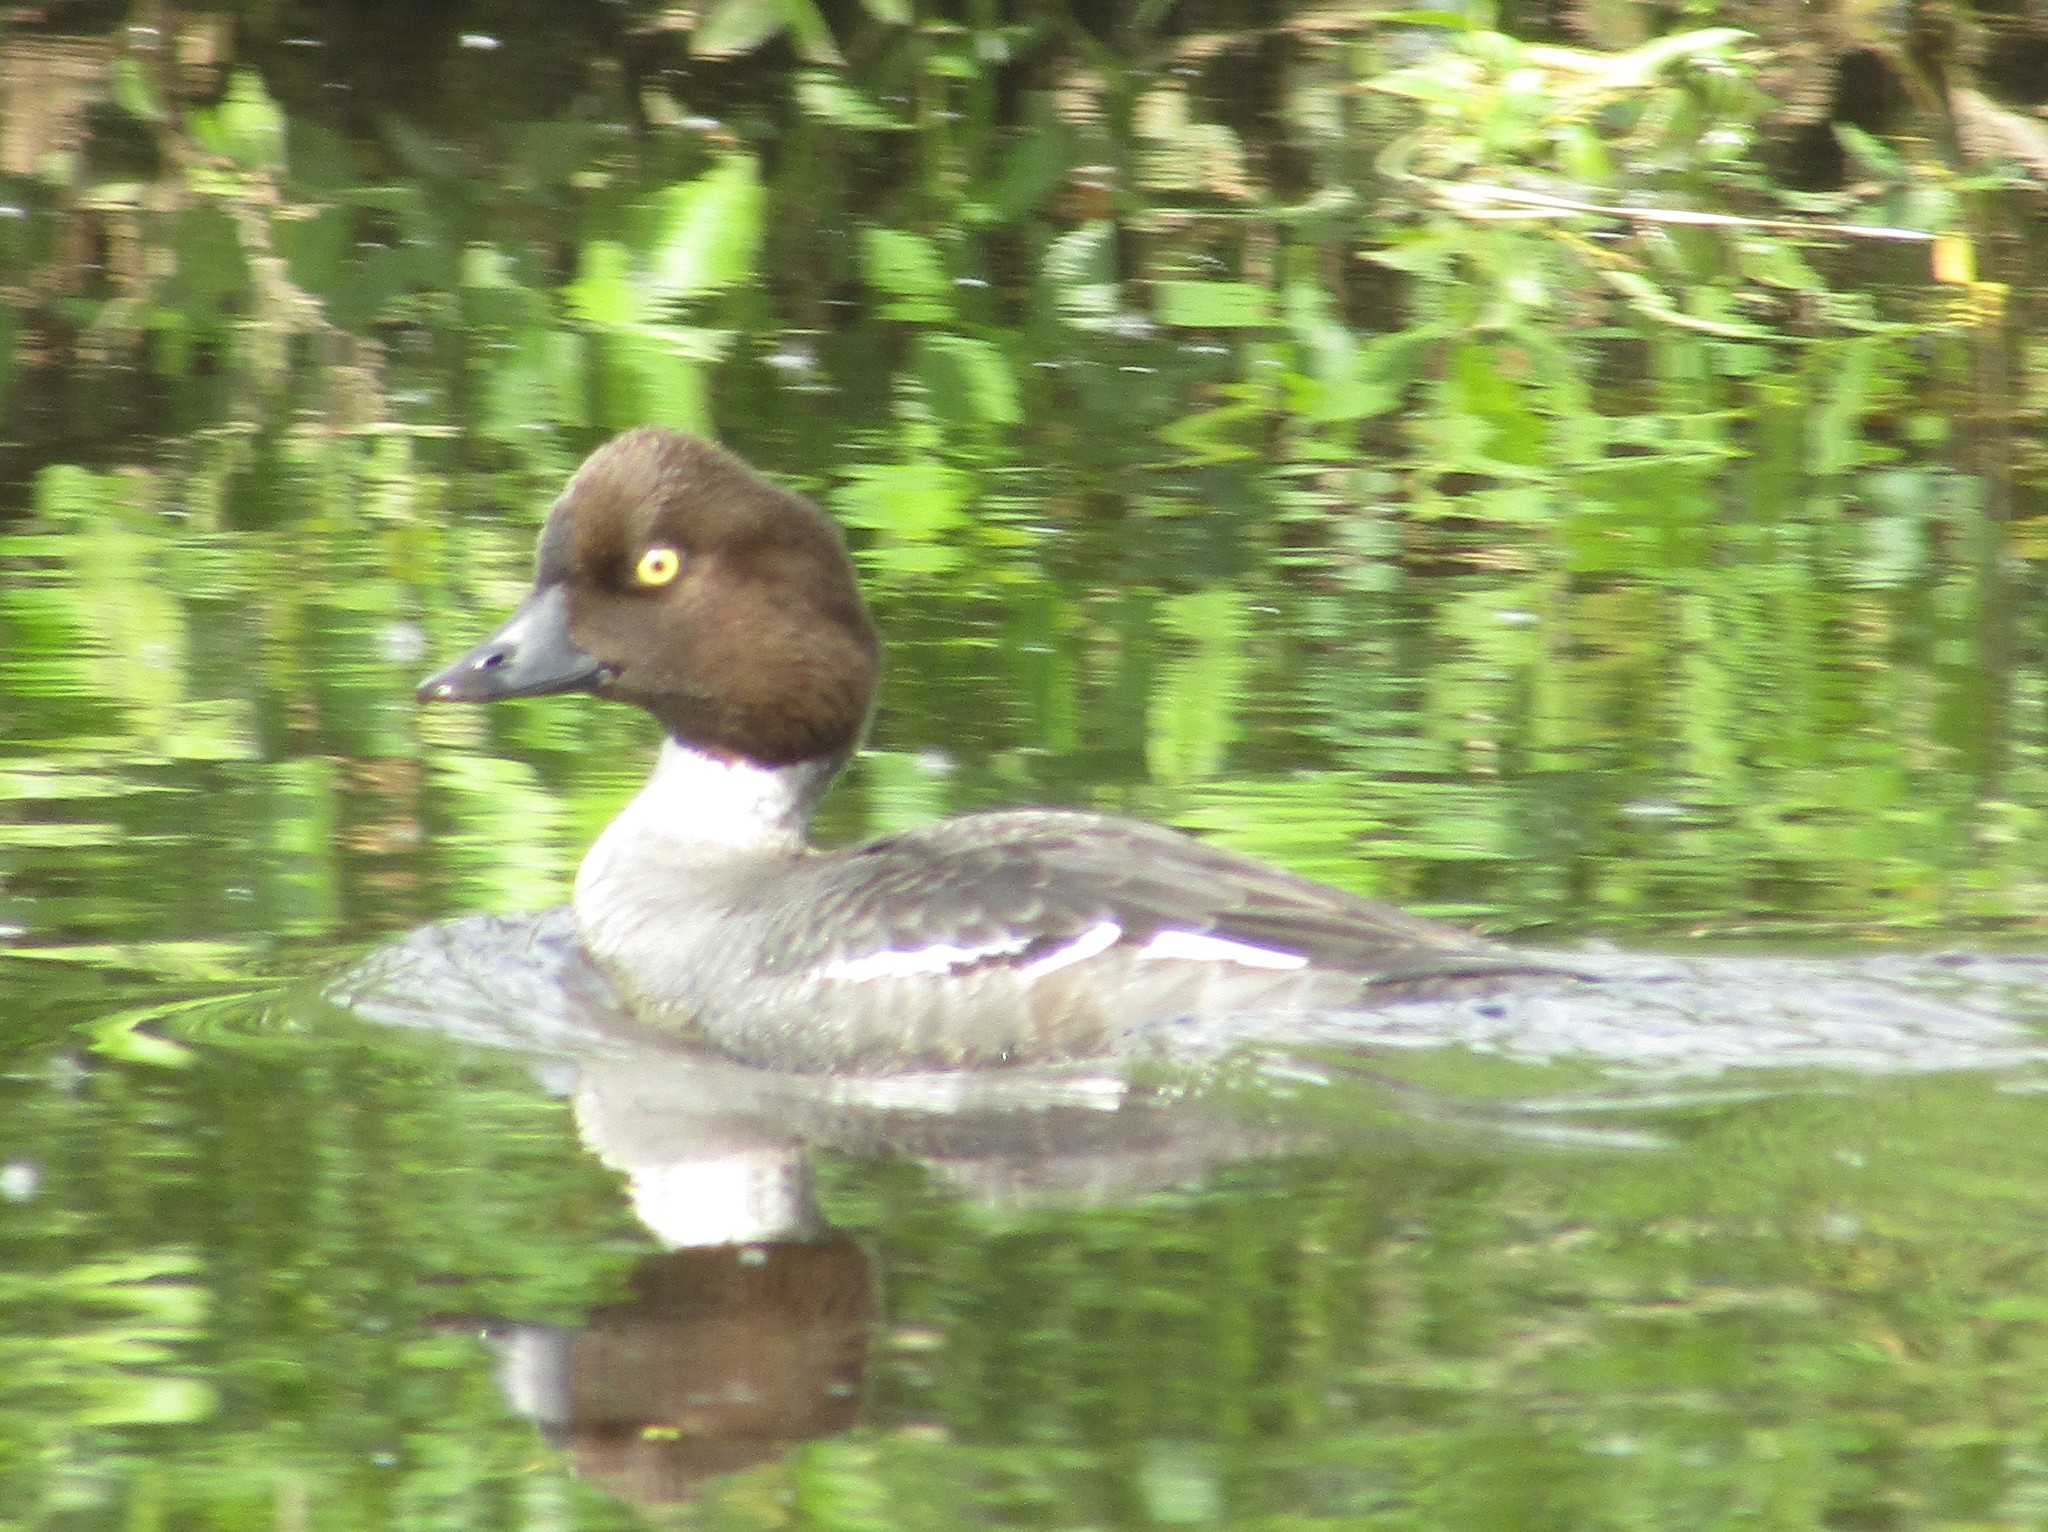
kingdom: Animalia
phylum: Chordata
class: Aves
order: Anseriformes
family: Anatidae
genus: Bucephala
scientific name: Bucephala clangula
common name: Common goldeneye
